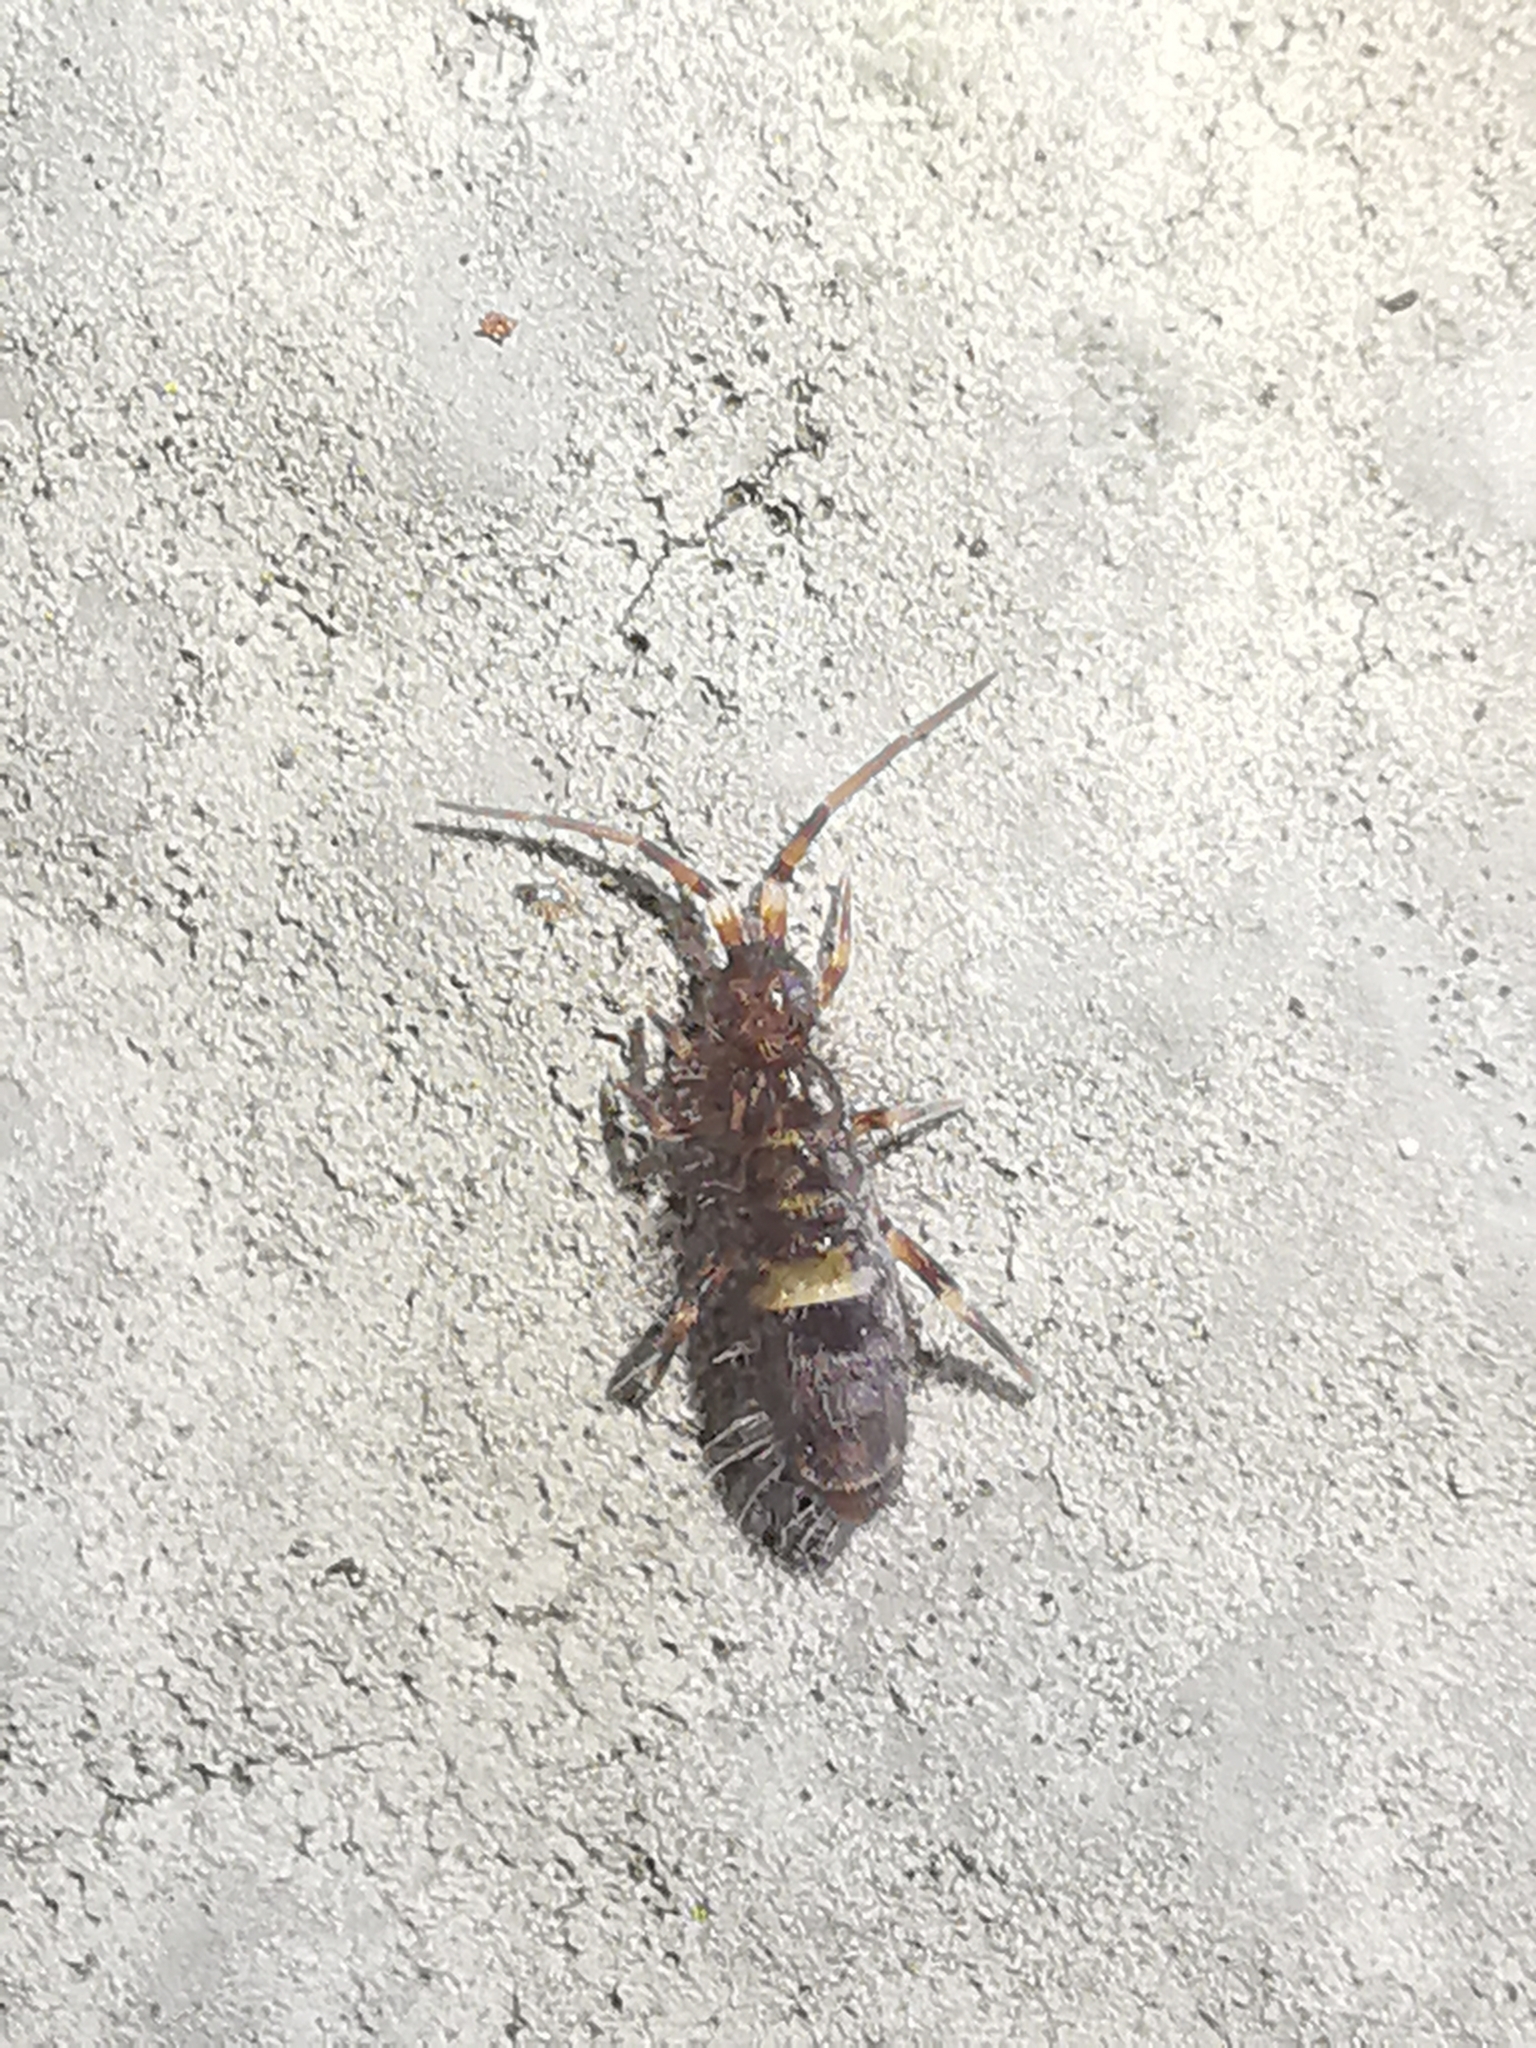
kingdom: Animalia
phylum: Arthropoda
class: Collembola
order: Entomobryomorpha
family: Orchesellidae
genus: Orchesella
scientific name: Orchesella cincta
